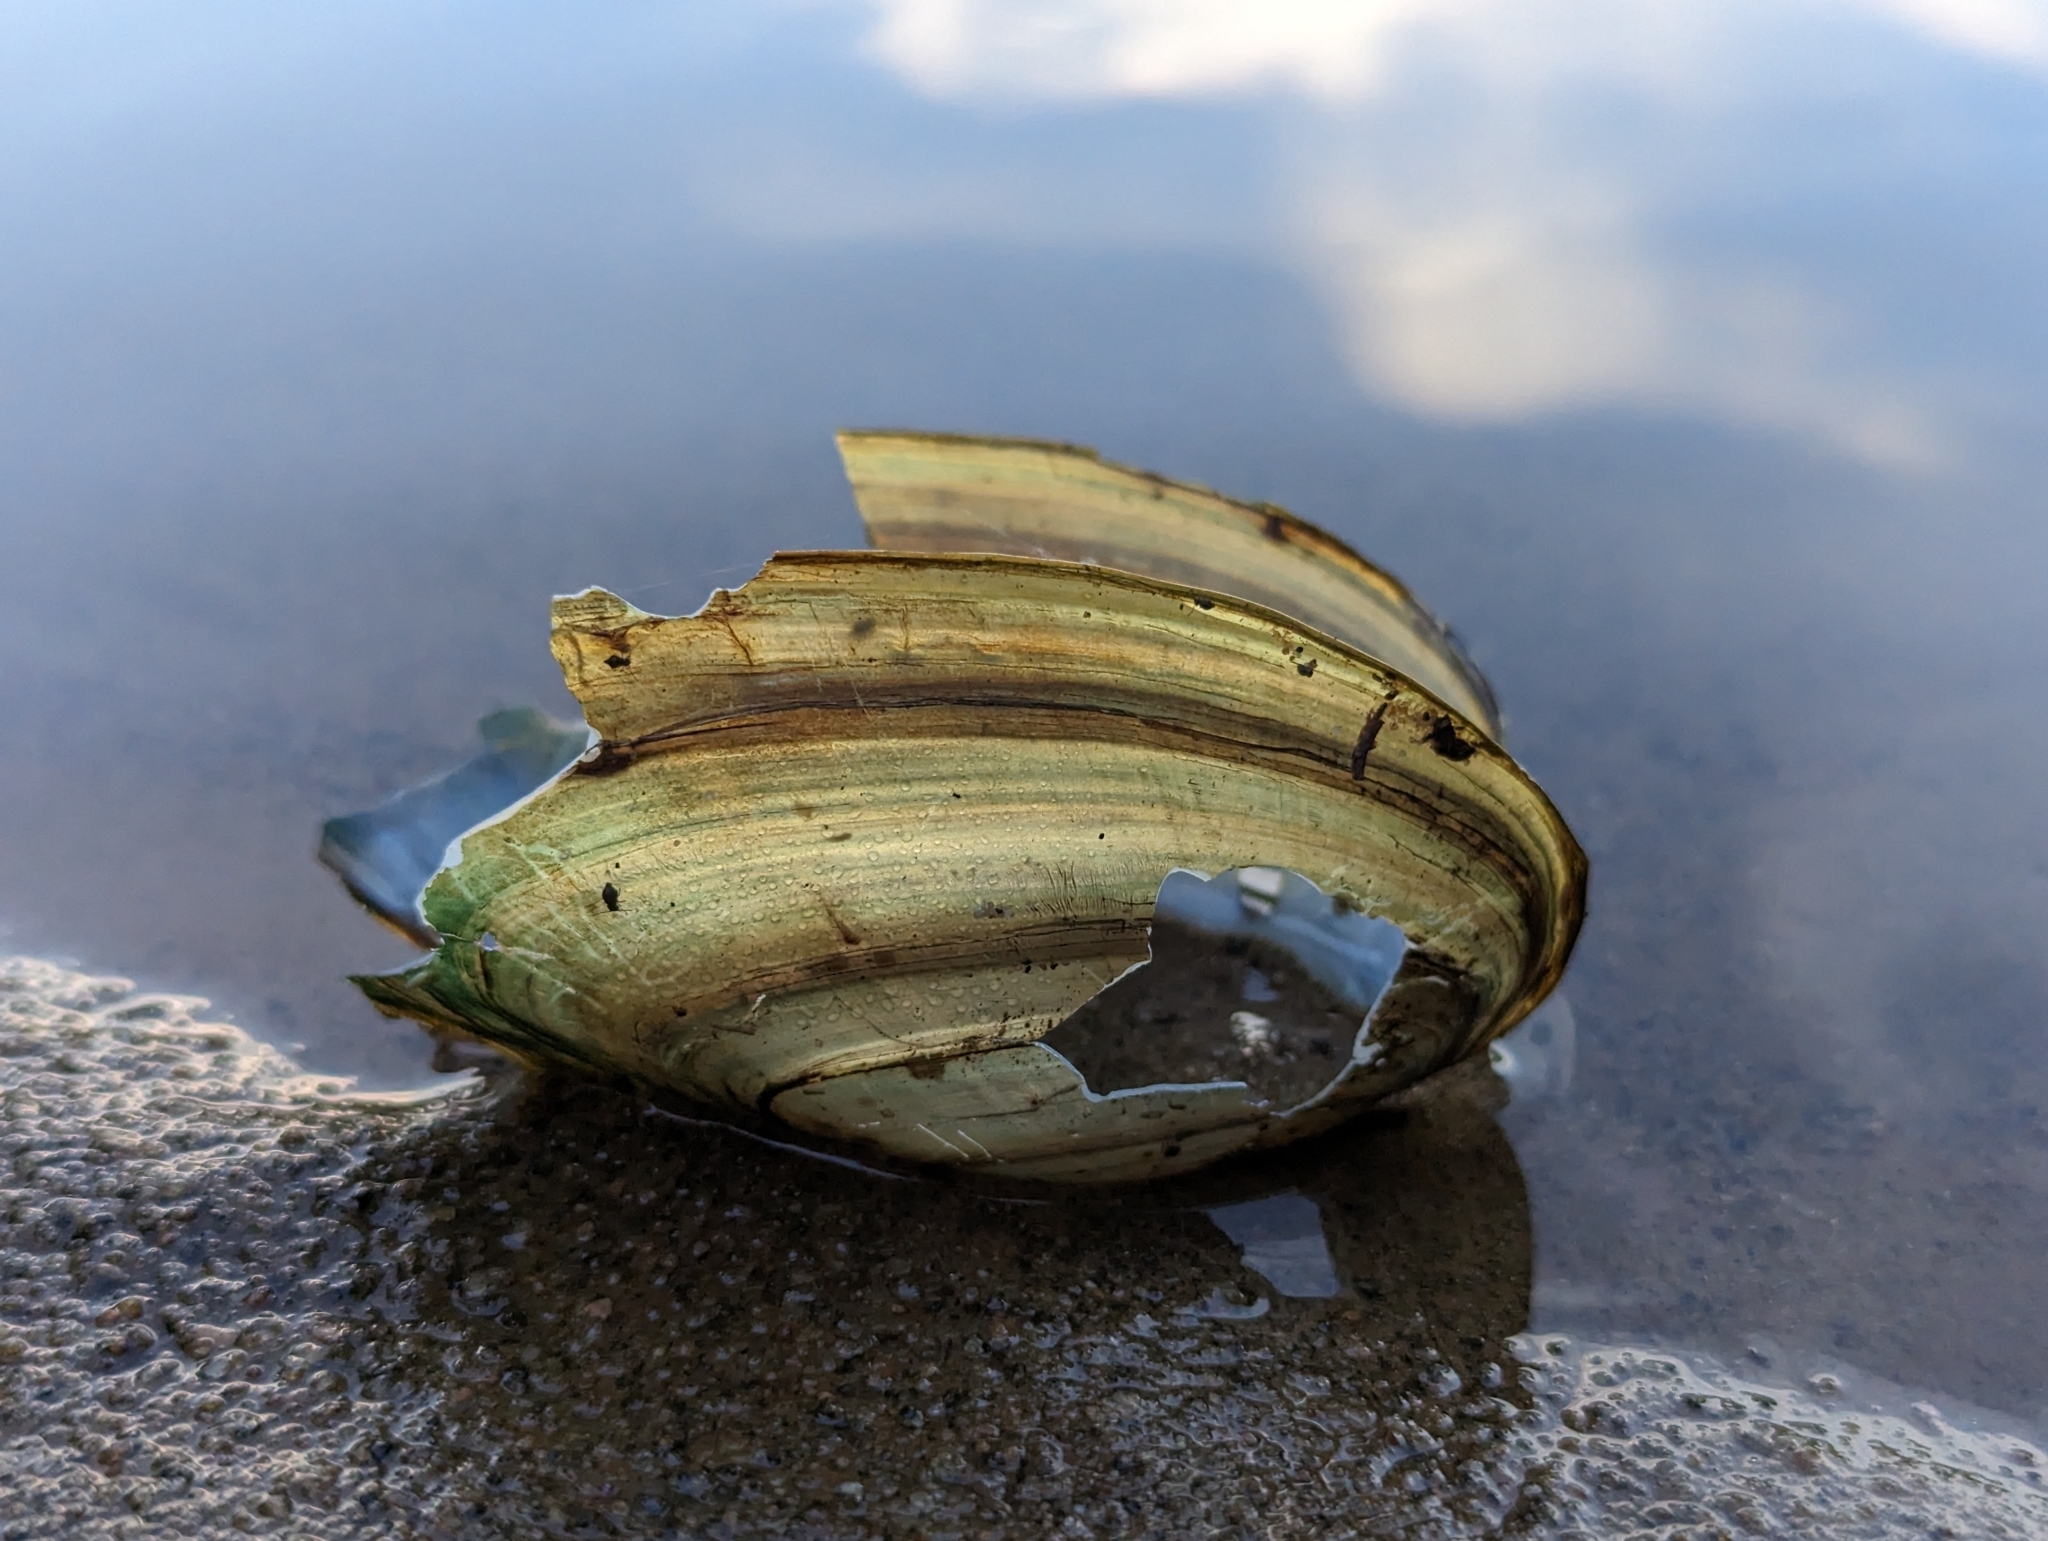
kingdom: Animalia
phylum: Mollusca
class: Bivalvia
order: Unionida
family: Unionidae
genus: Pyganodon
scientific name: Pyganodon cataracta
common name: Eastern floater
